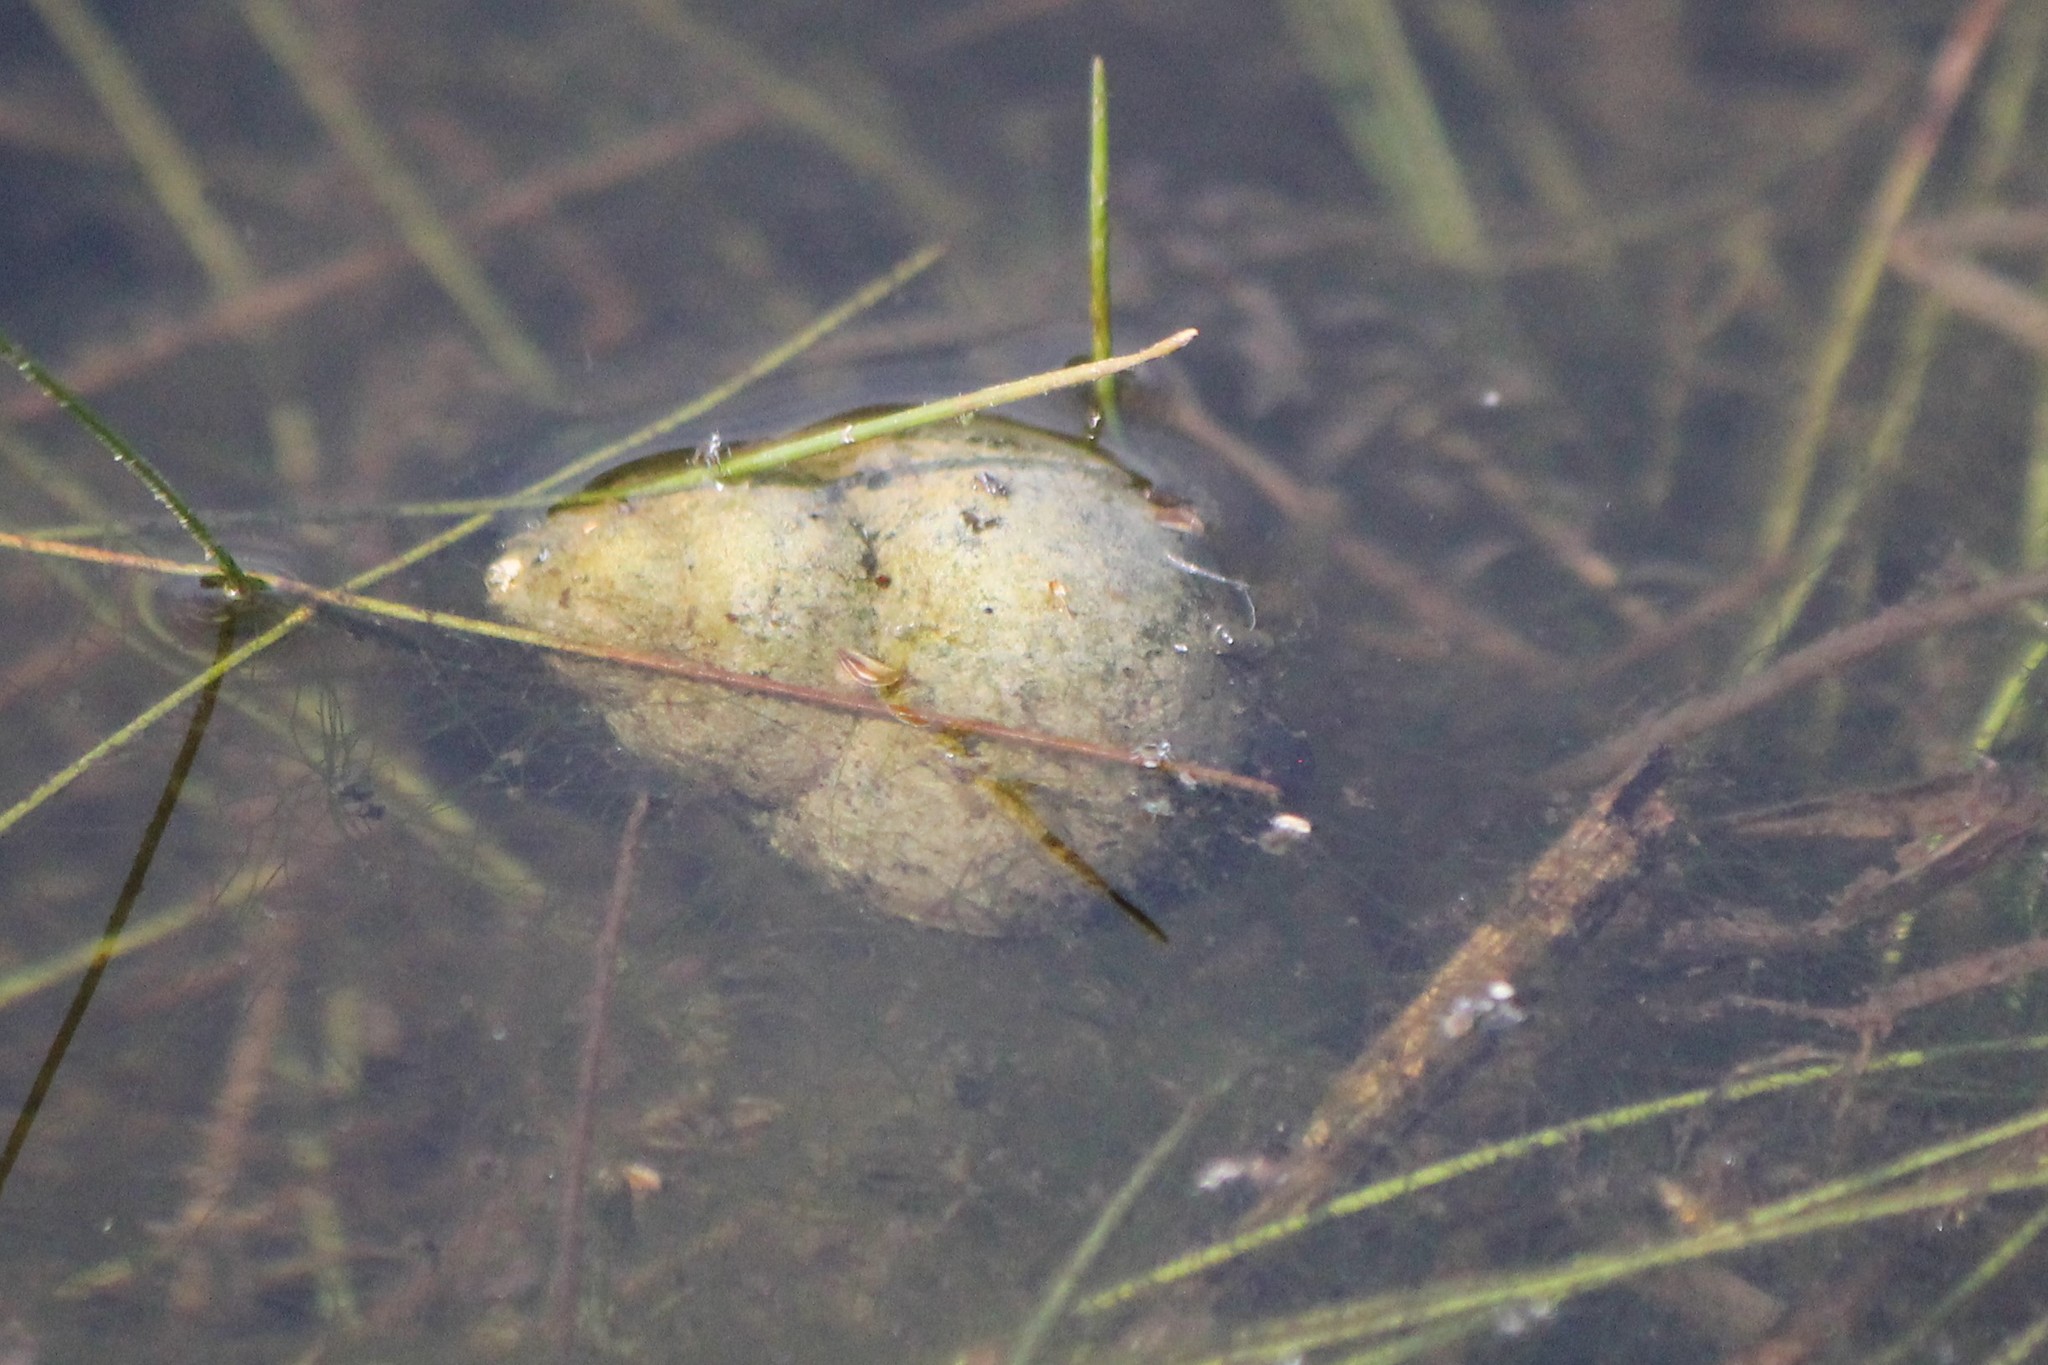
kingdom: Animalia
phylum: Mollusca
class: Gastropoda
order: Architaenioglossa
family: Viviparidae
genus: Cipangopaludina
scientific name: Cipangopaludina chinensis
